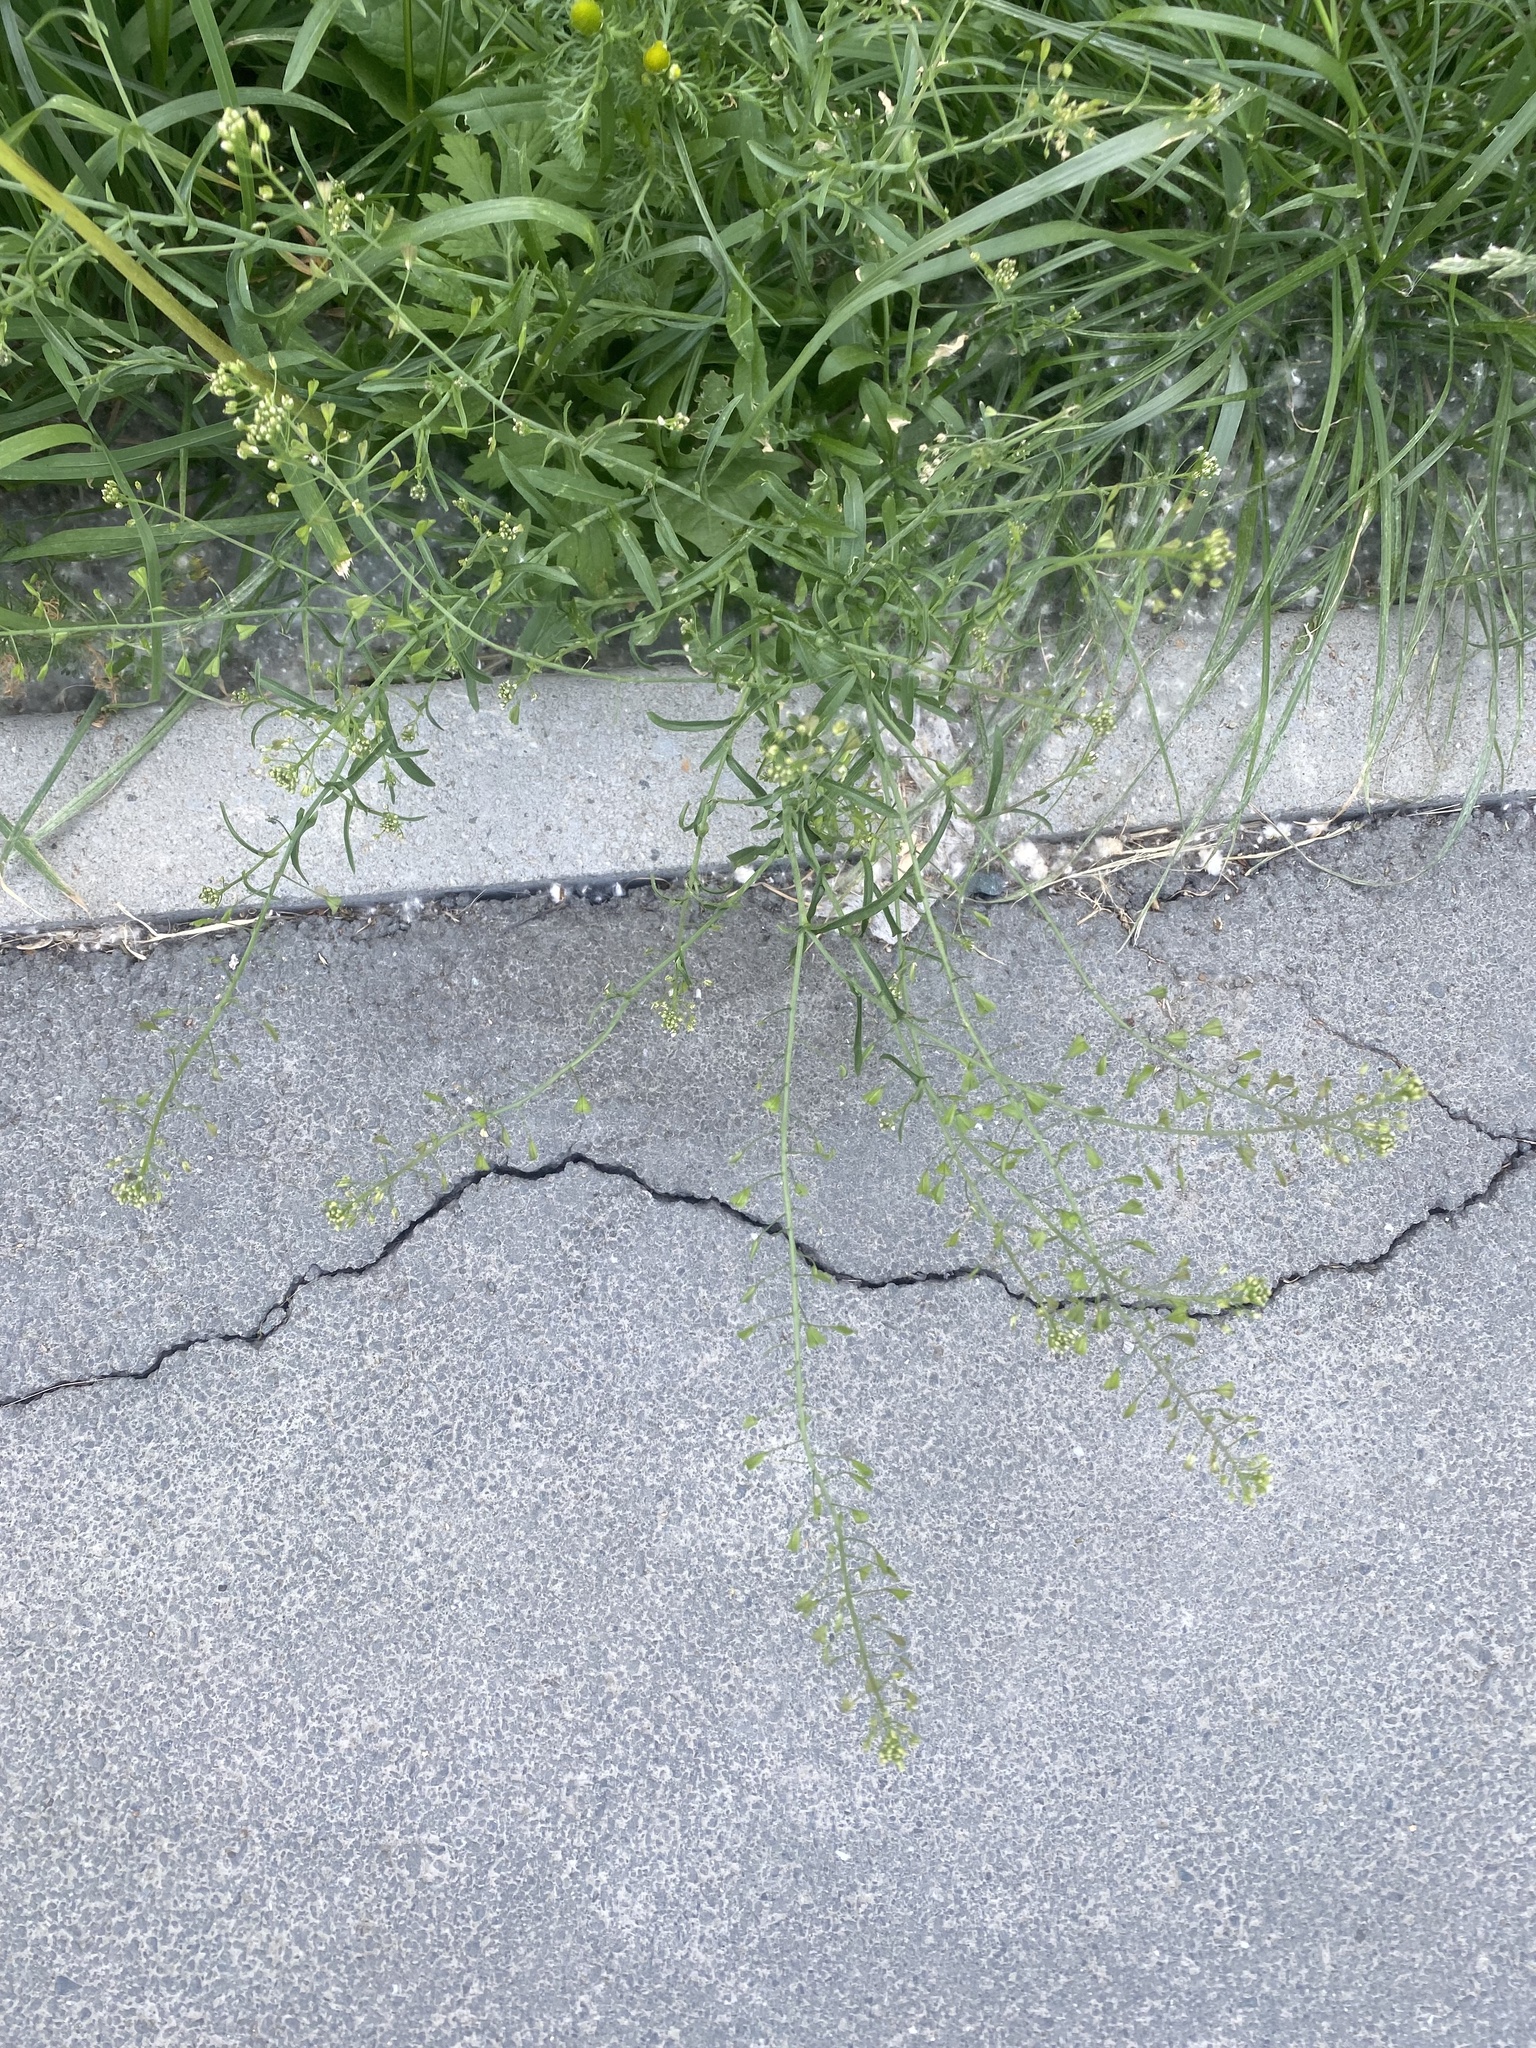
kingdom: Plantae
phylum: Tracheophyta
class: Magnoliopsida
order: Brassicales
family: Brassicaceae
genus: Capsella
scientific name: Capsella bursa-pastoris
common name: Shepherd's purse
